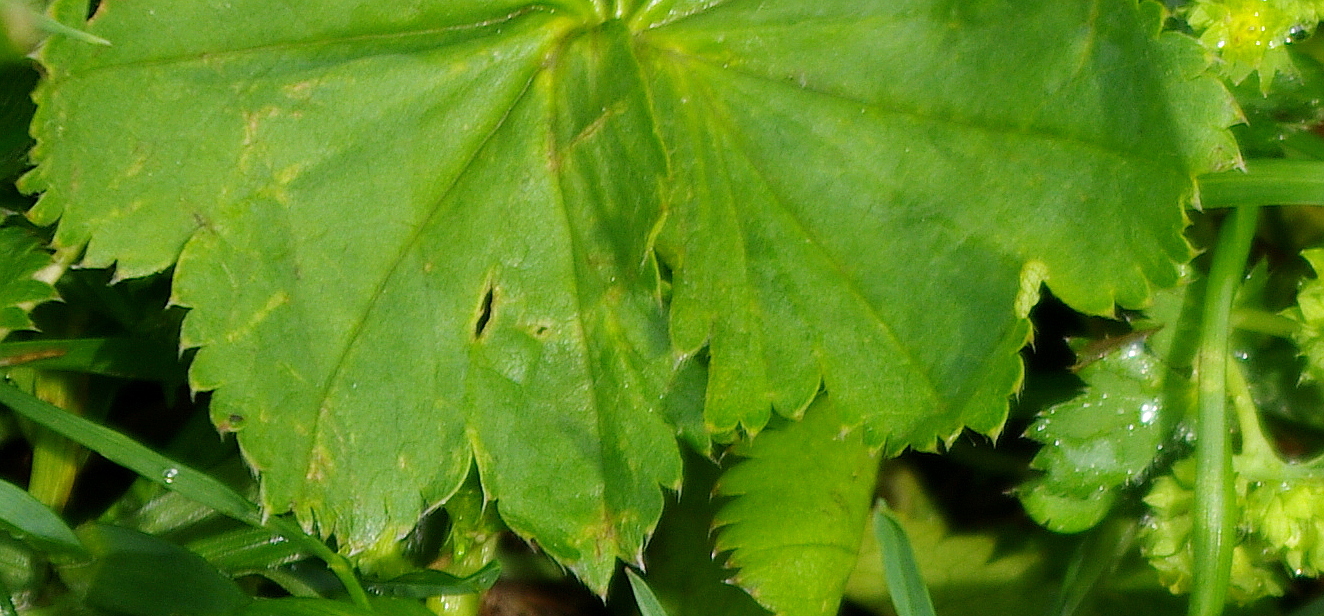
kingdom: Plantae
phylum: Tracheophyta
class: Magnoliopsida
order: Rosales
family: Rosaceae
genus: Alchemilla
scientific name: Alchemilla filicaulis
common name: Hairy lady's-mantle
